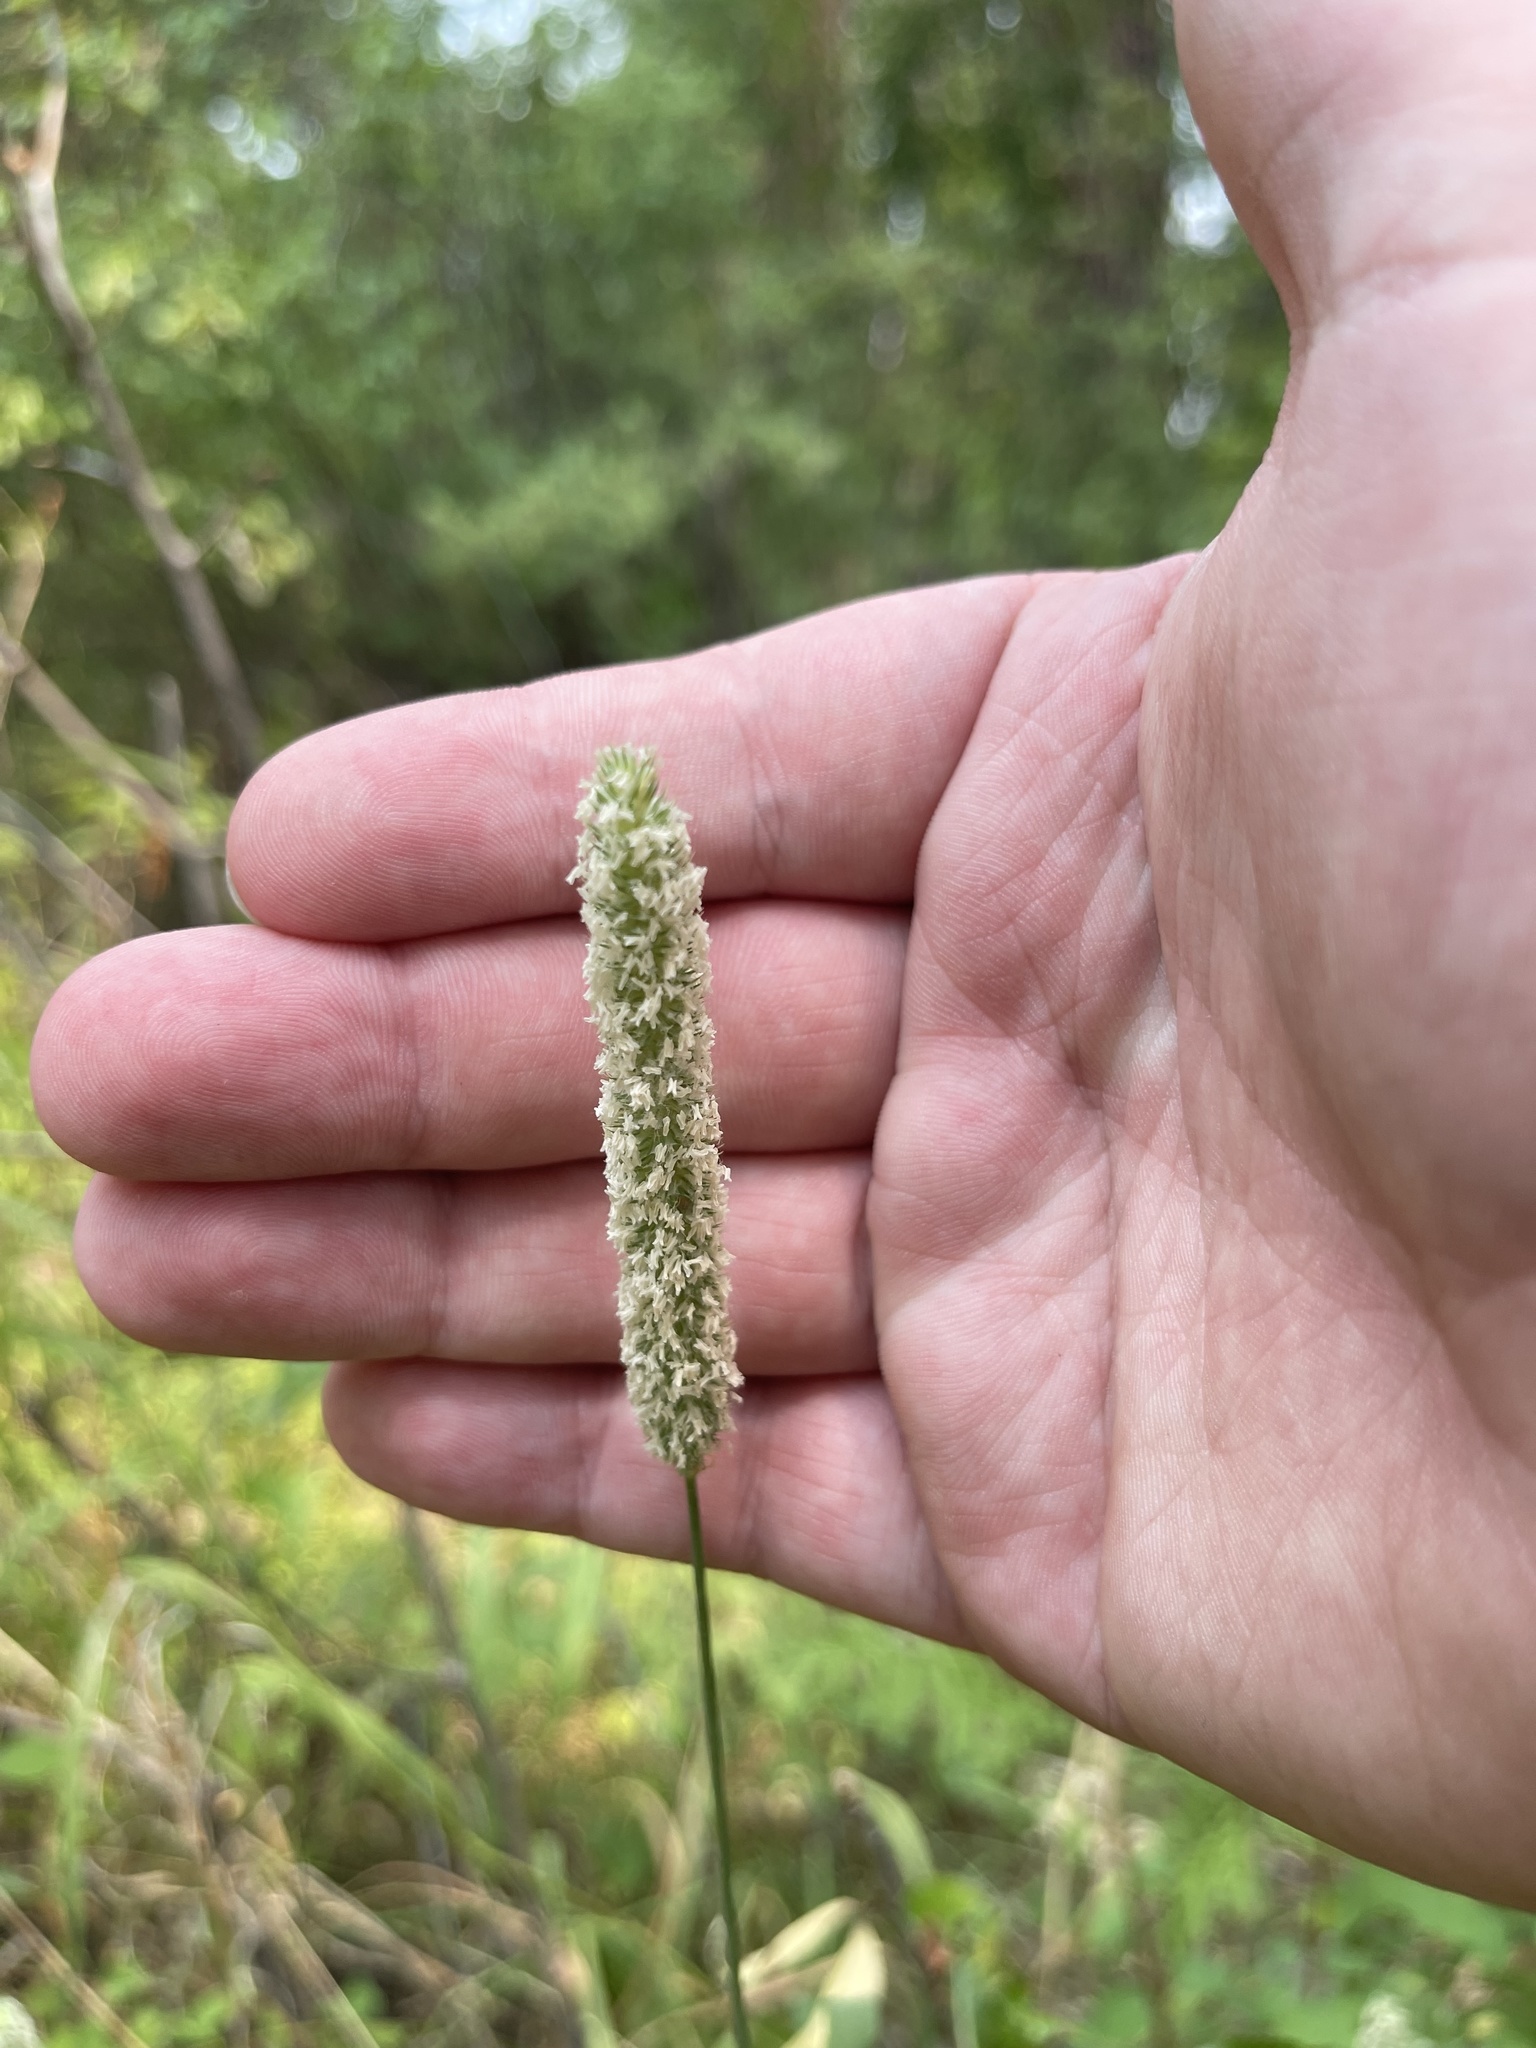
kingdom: Plantae
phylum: Tracheophyta
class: Liliopsida
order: Poales
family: Poaceae
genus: Phleum
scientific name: Phleum pratense
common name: Timothy grass
